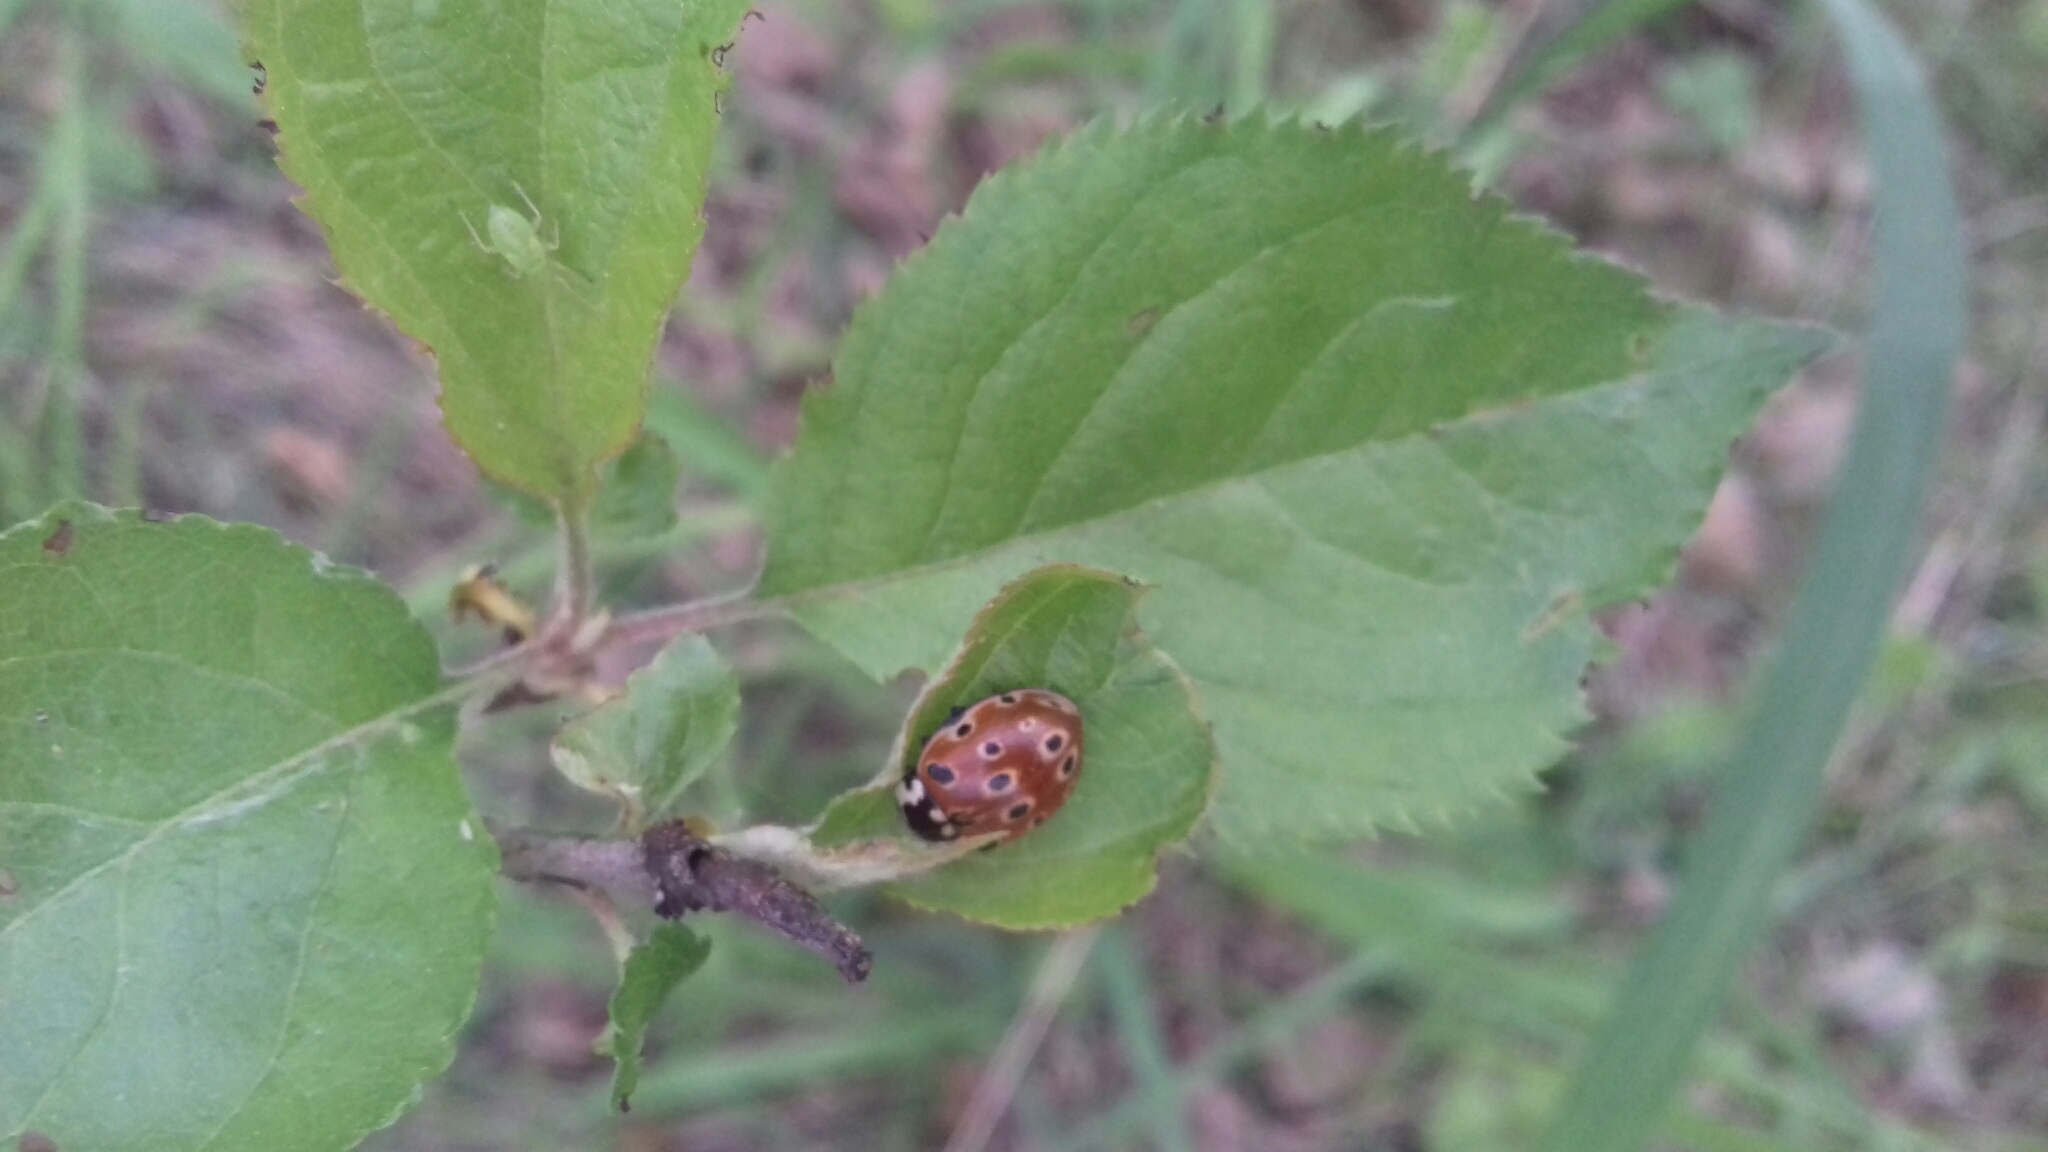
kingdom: Animalia
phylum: Arthropoda
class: Insecta
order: Coleoptera
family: Coccinellidae
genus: Anatis
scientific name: Anatis ocellata
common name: Eyed ladybird
